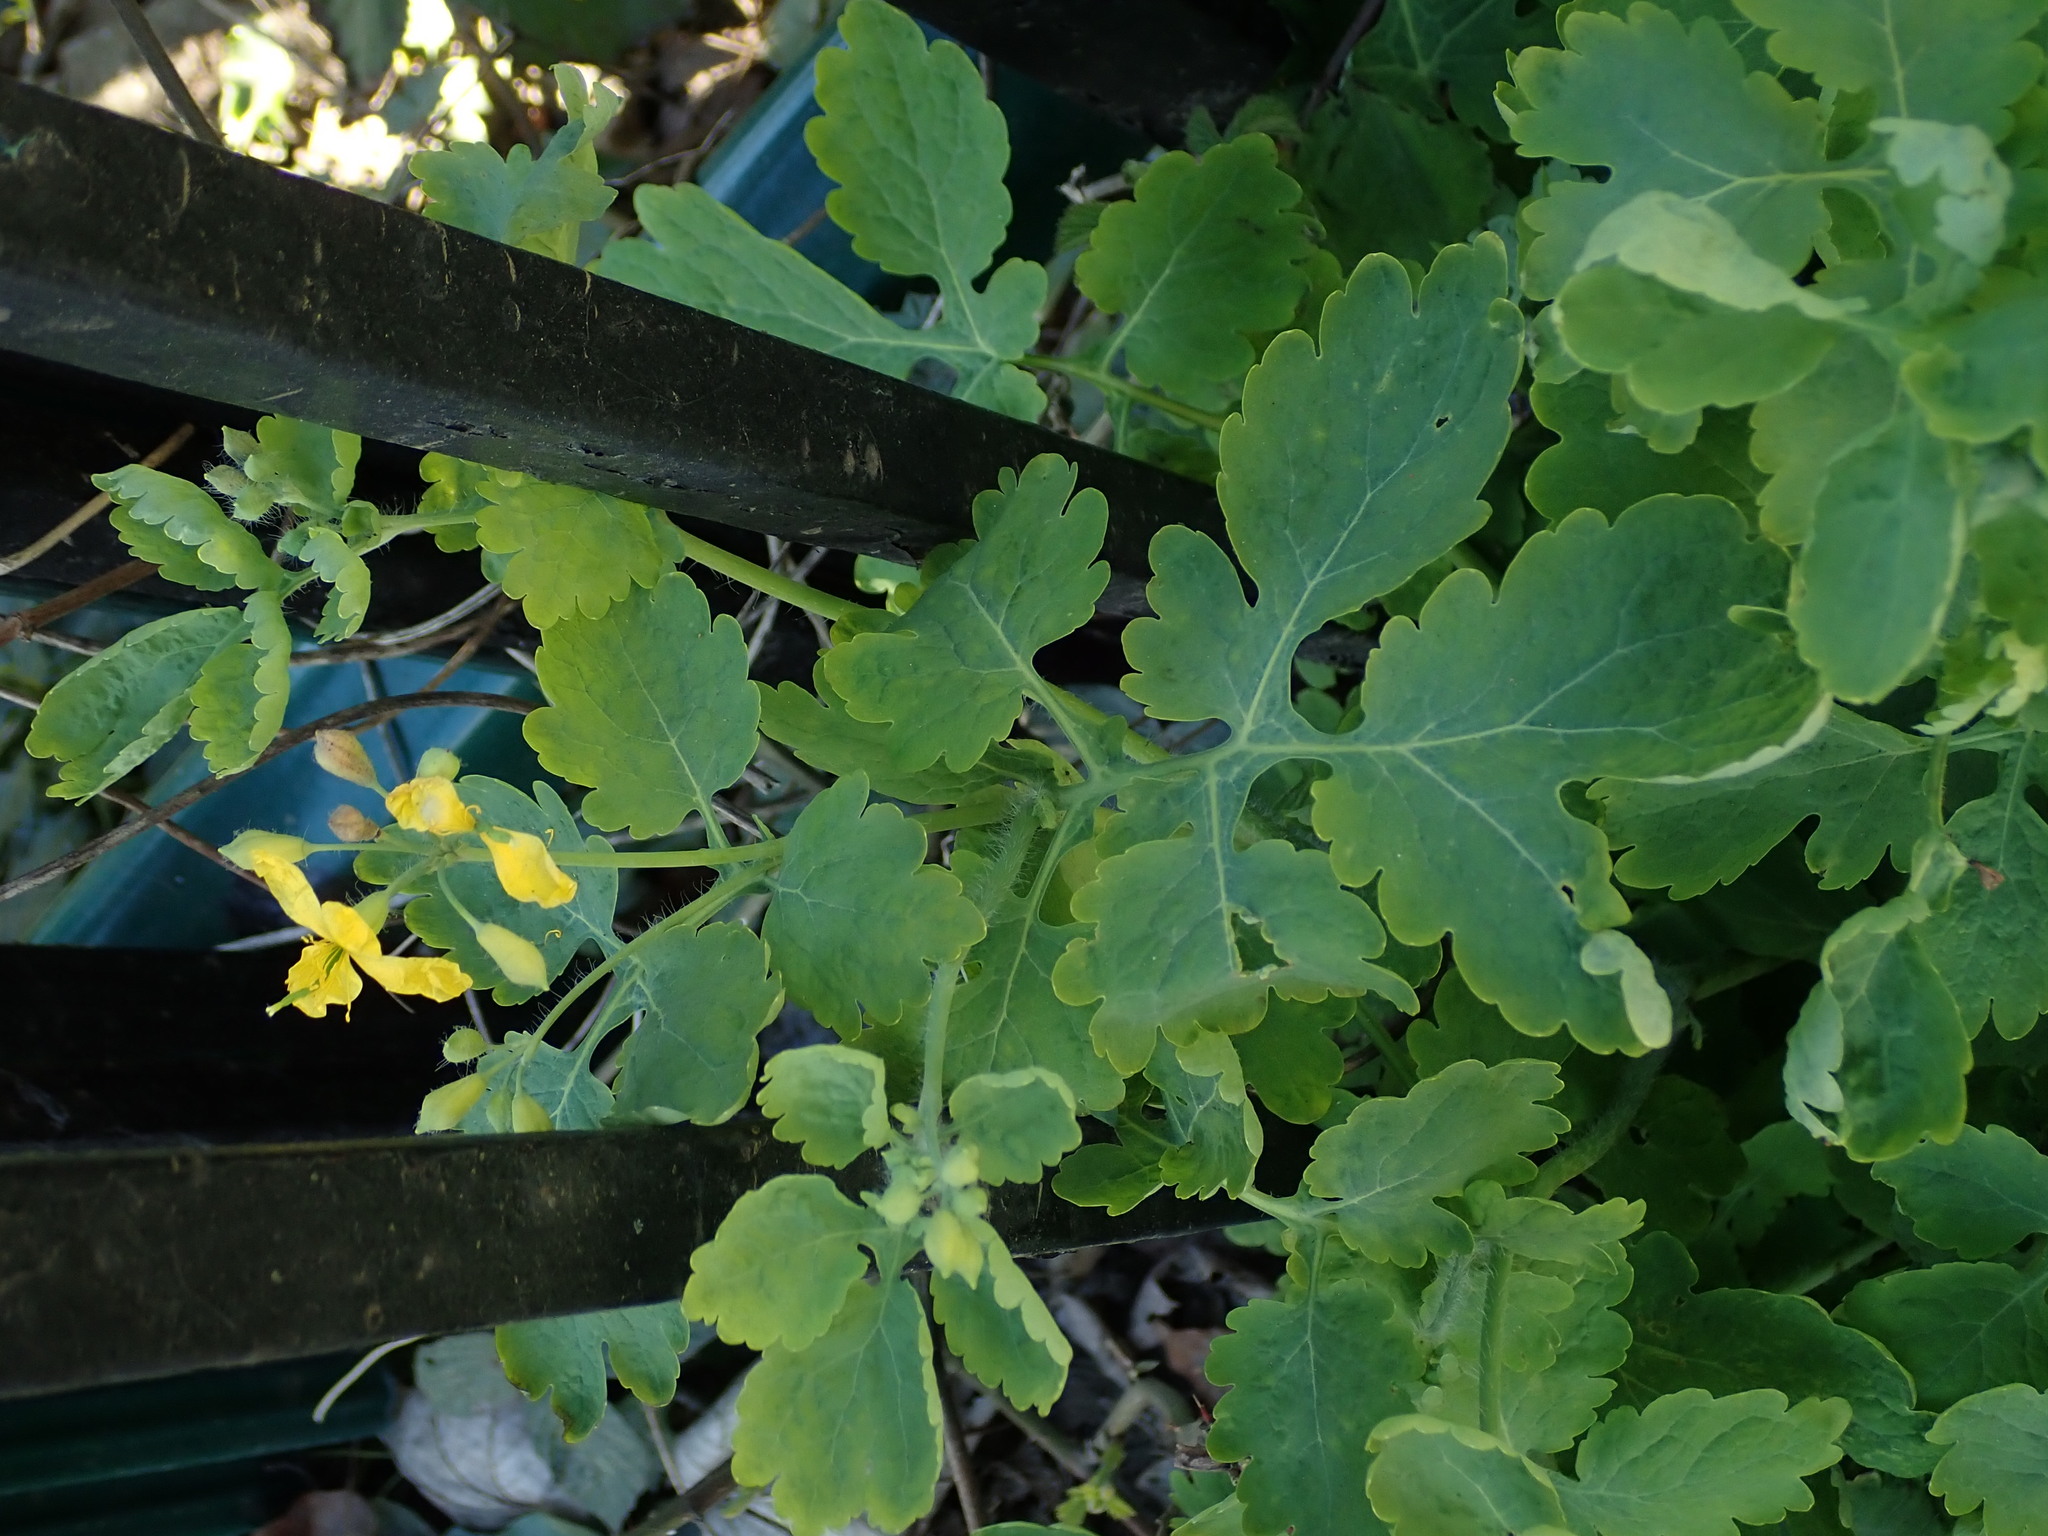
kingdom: Plantae
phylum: Tracheophyta
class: Magnoliopsida
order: Ranunculales
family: Papaveraceae
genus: Chelidonium
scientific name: Chelidonium majus
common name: Greater celandine
